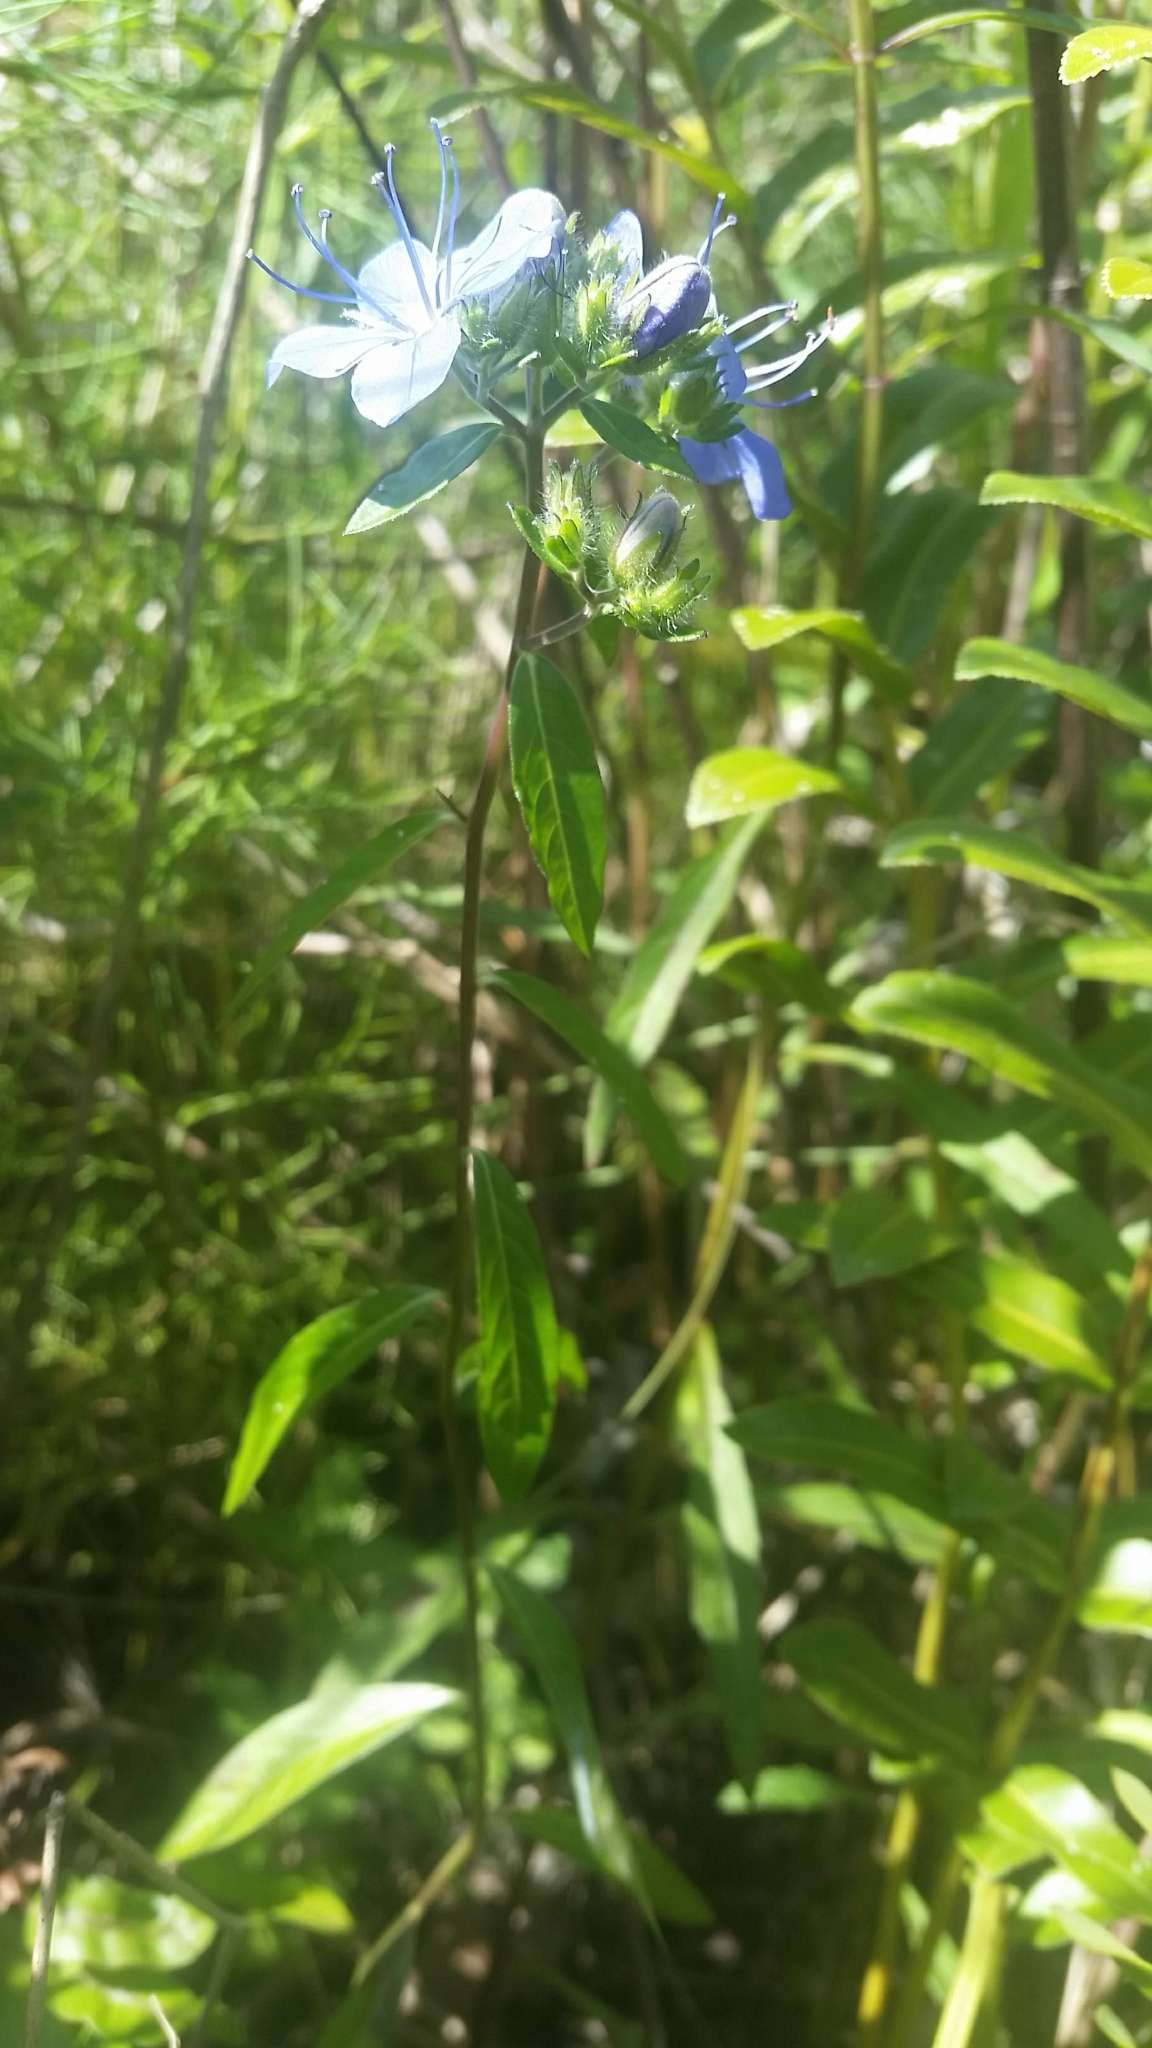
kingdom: Plantae
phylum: Tracheophyta
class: Magnoliopsida
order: Solanales
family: Hydroleaceae
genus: Hydrolea
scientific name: Hydrolea corymbosa
